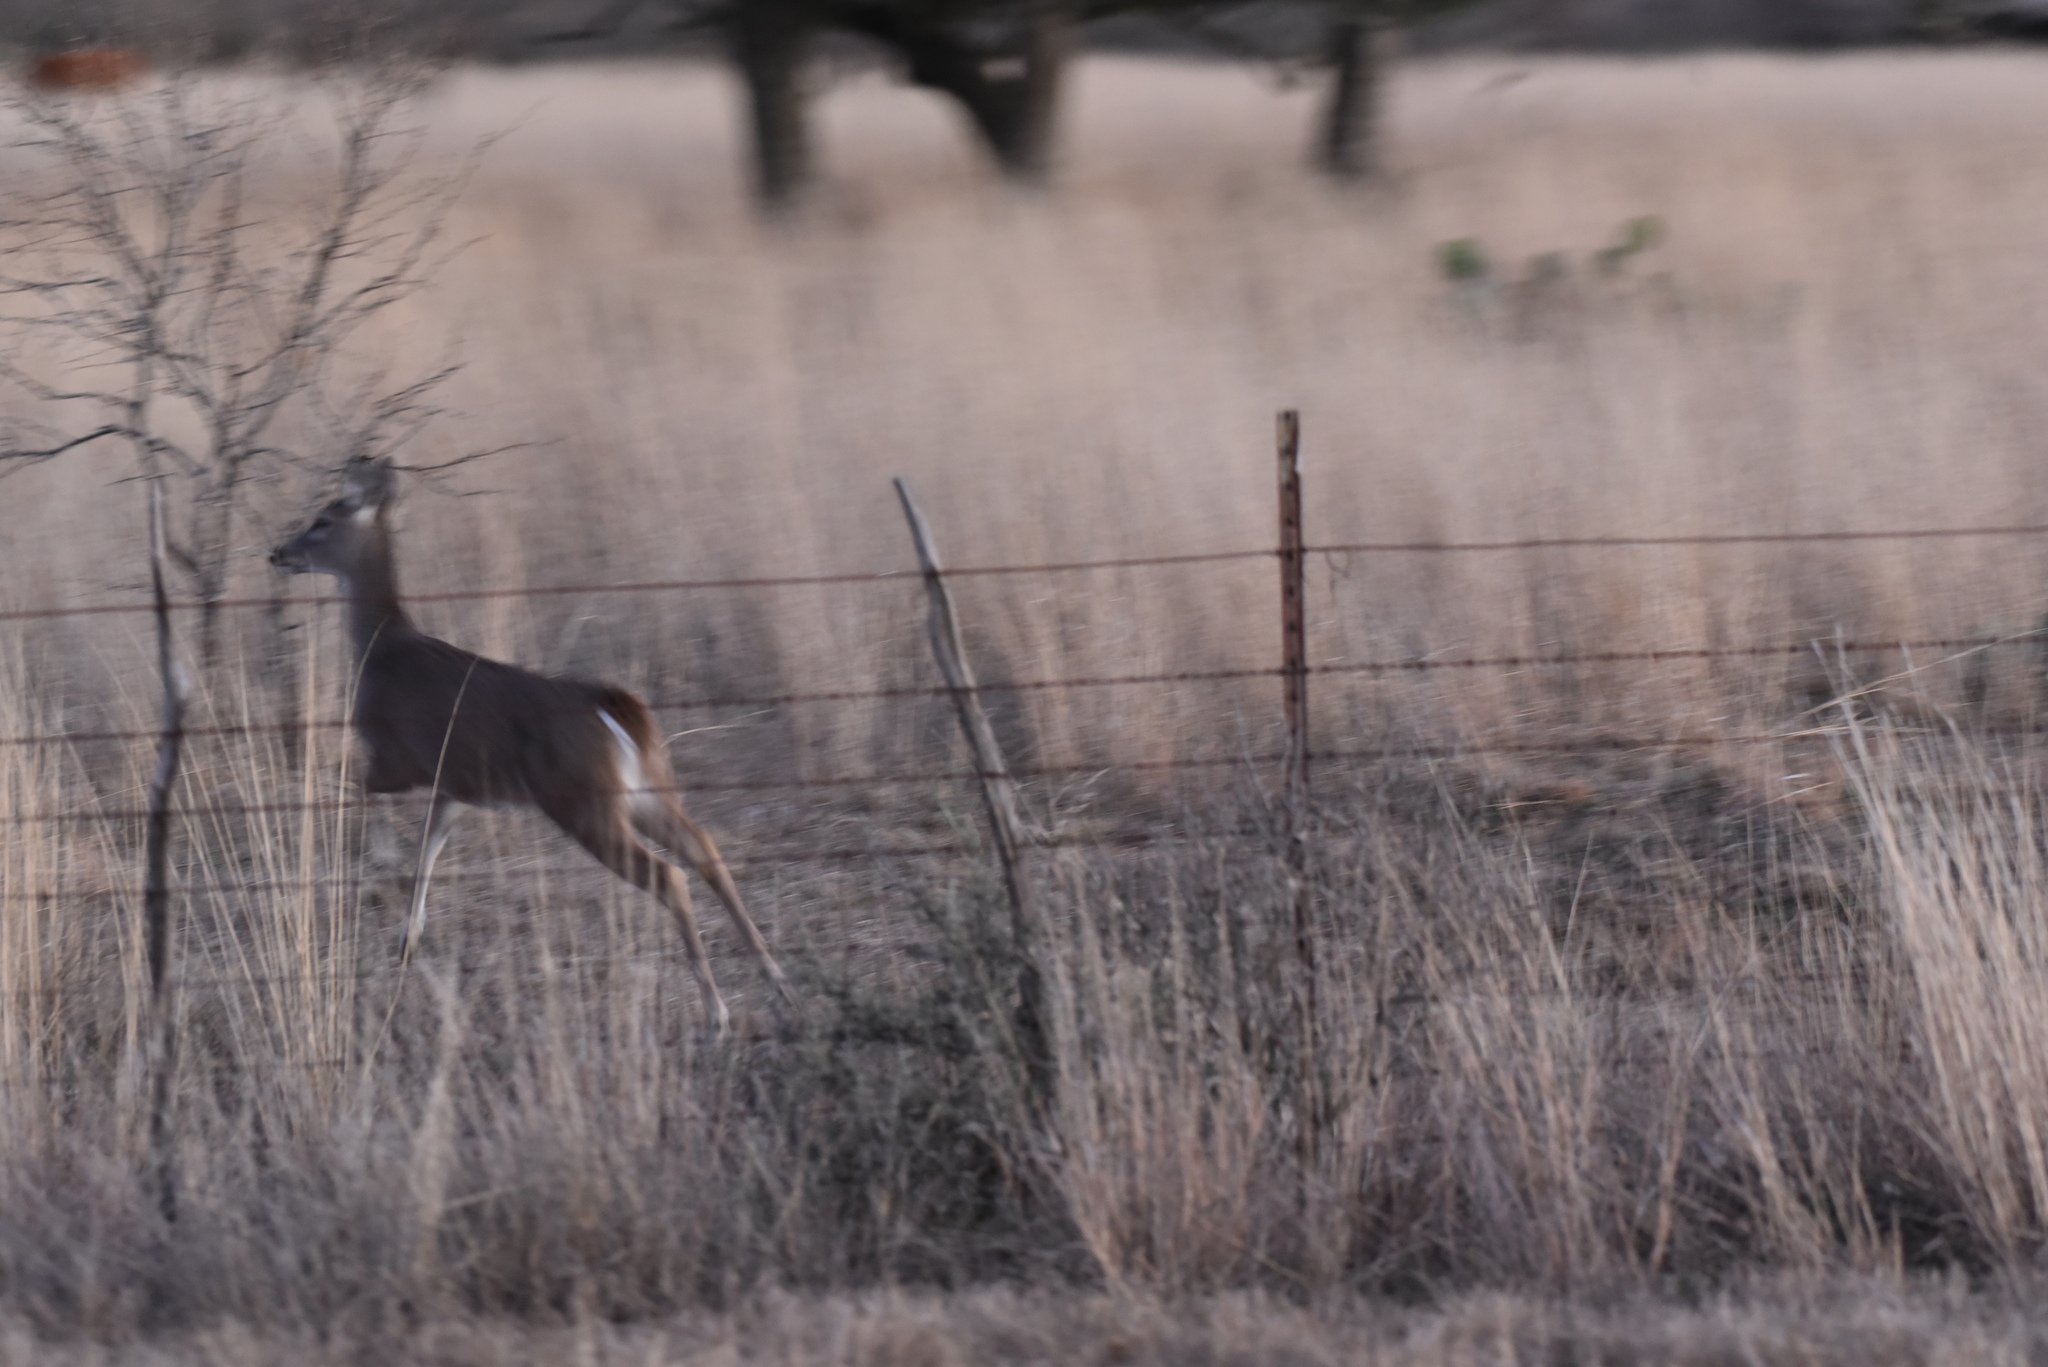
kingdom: Animalia
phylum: Chordata
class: Mammalia
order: Artiodactyla
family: Cervidae
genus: Odocoileus
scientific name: Odocoileus virginianus
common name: White-tailed deer
